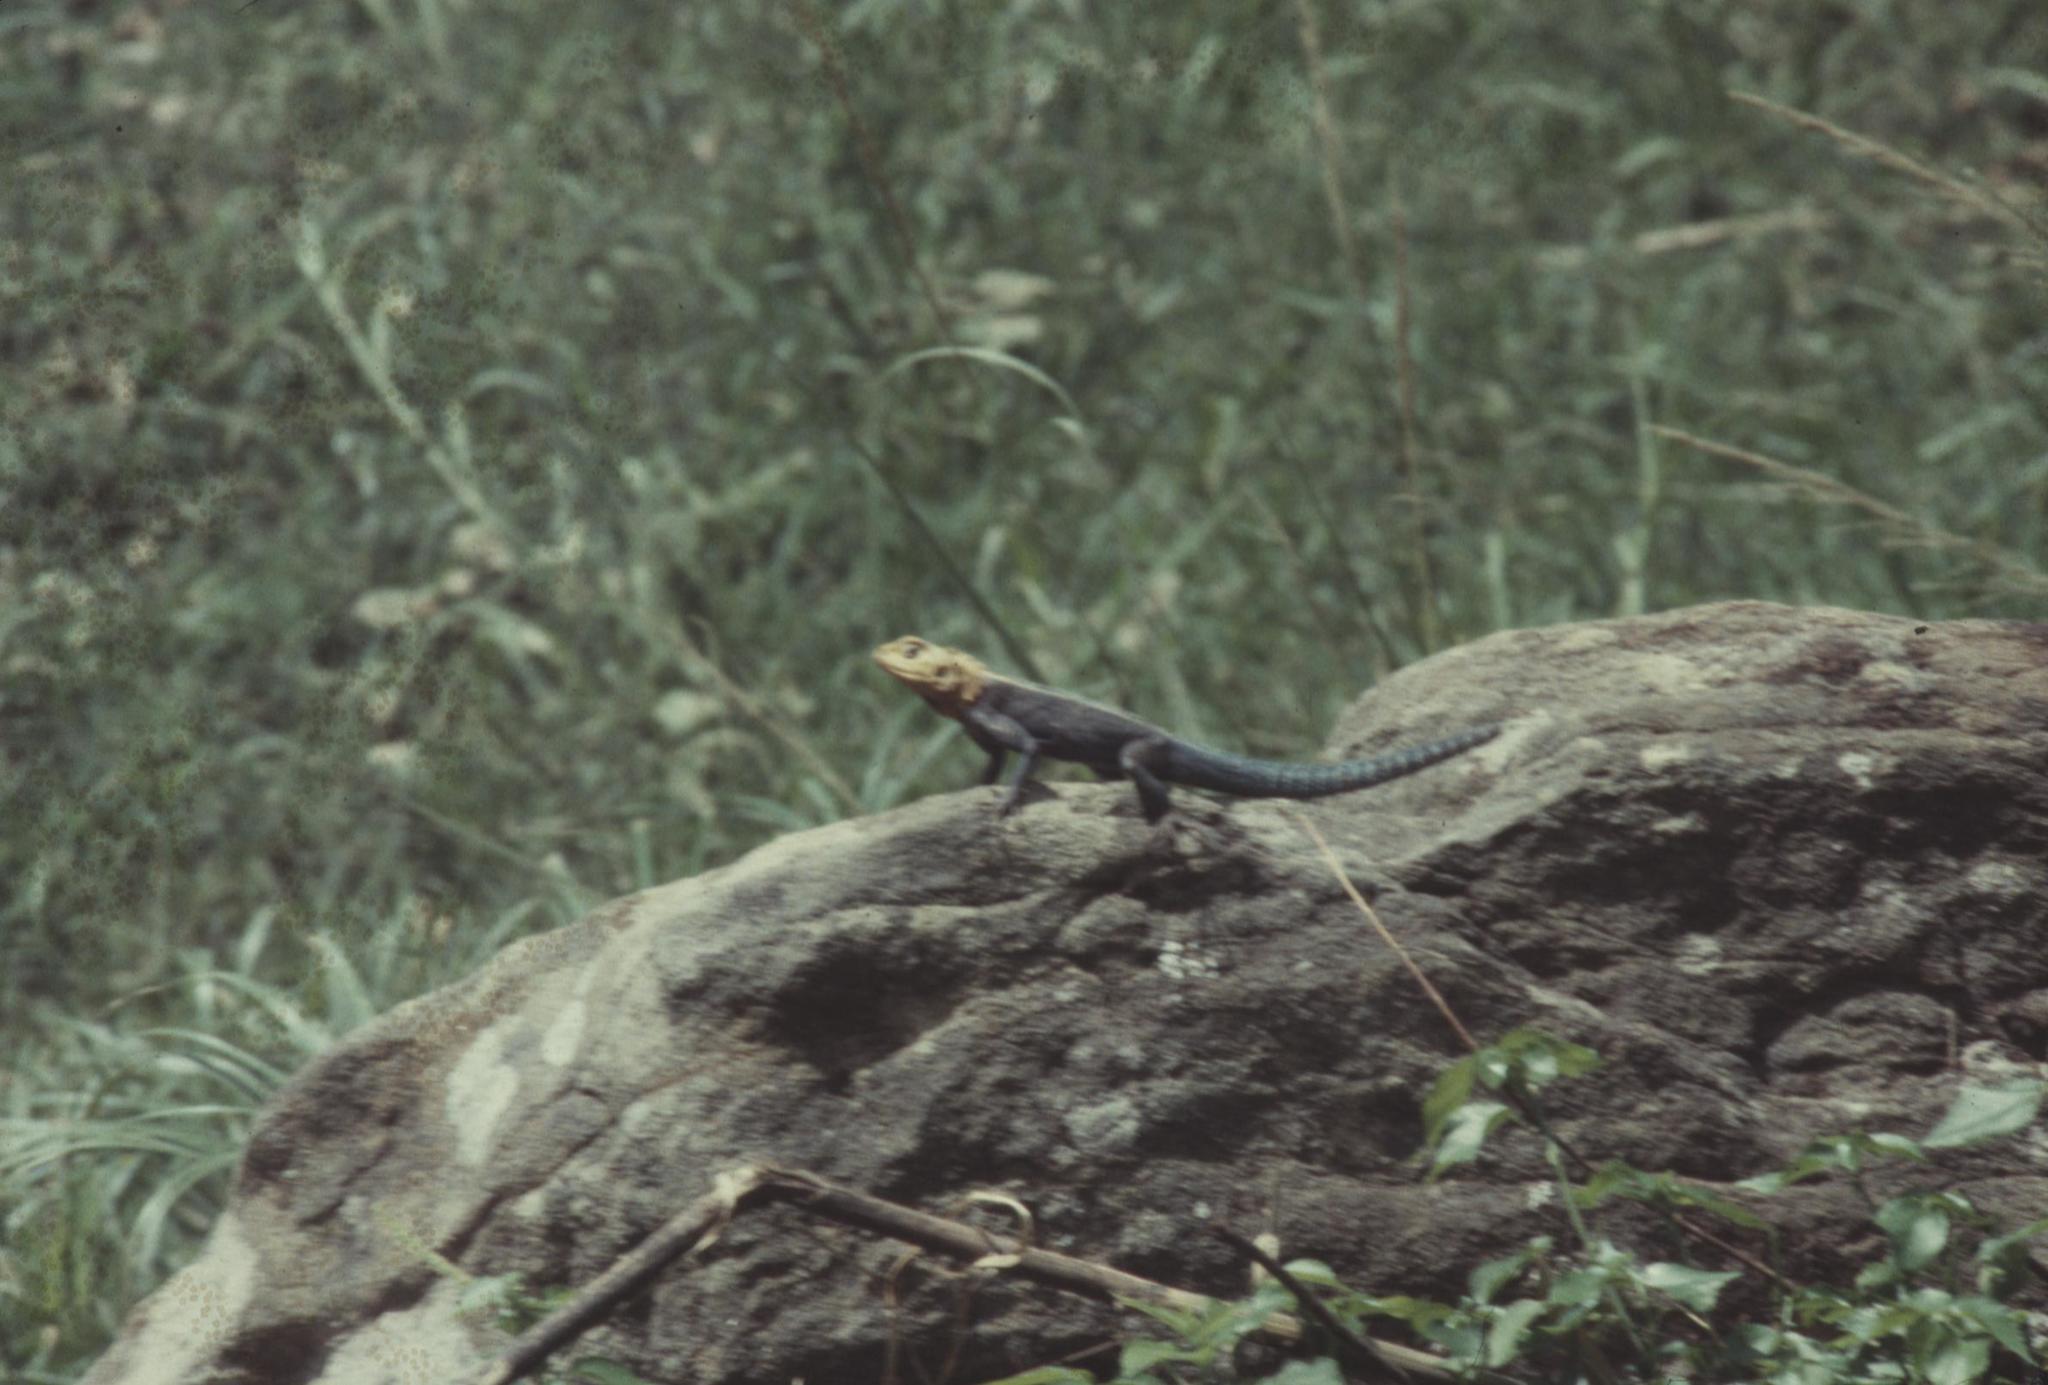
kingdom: Animalia
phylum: Chordata
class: Squamata
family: Agamidae
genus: Agama
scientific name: Agama kirkii
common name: Kirk's rock agama
